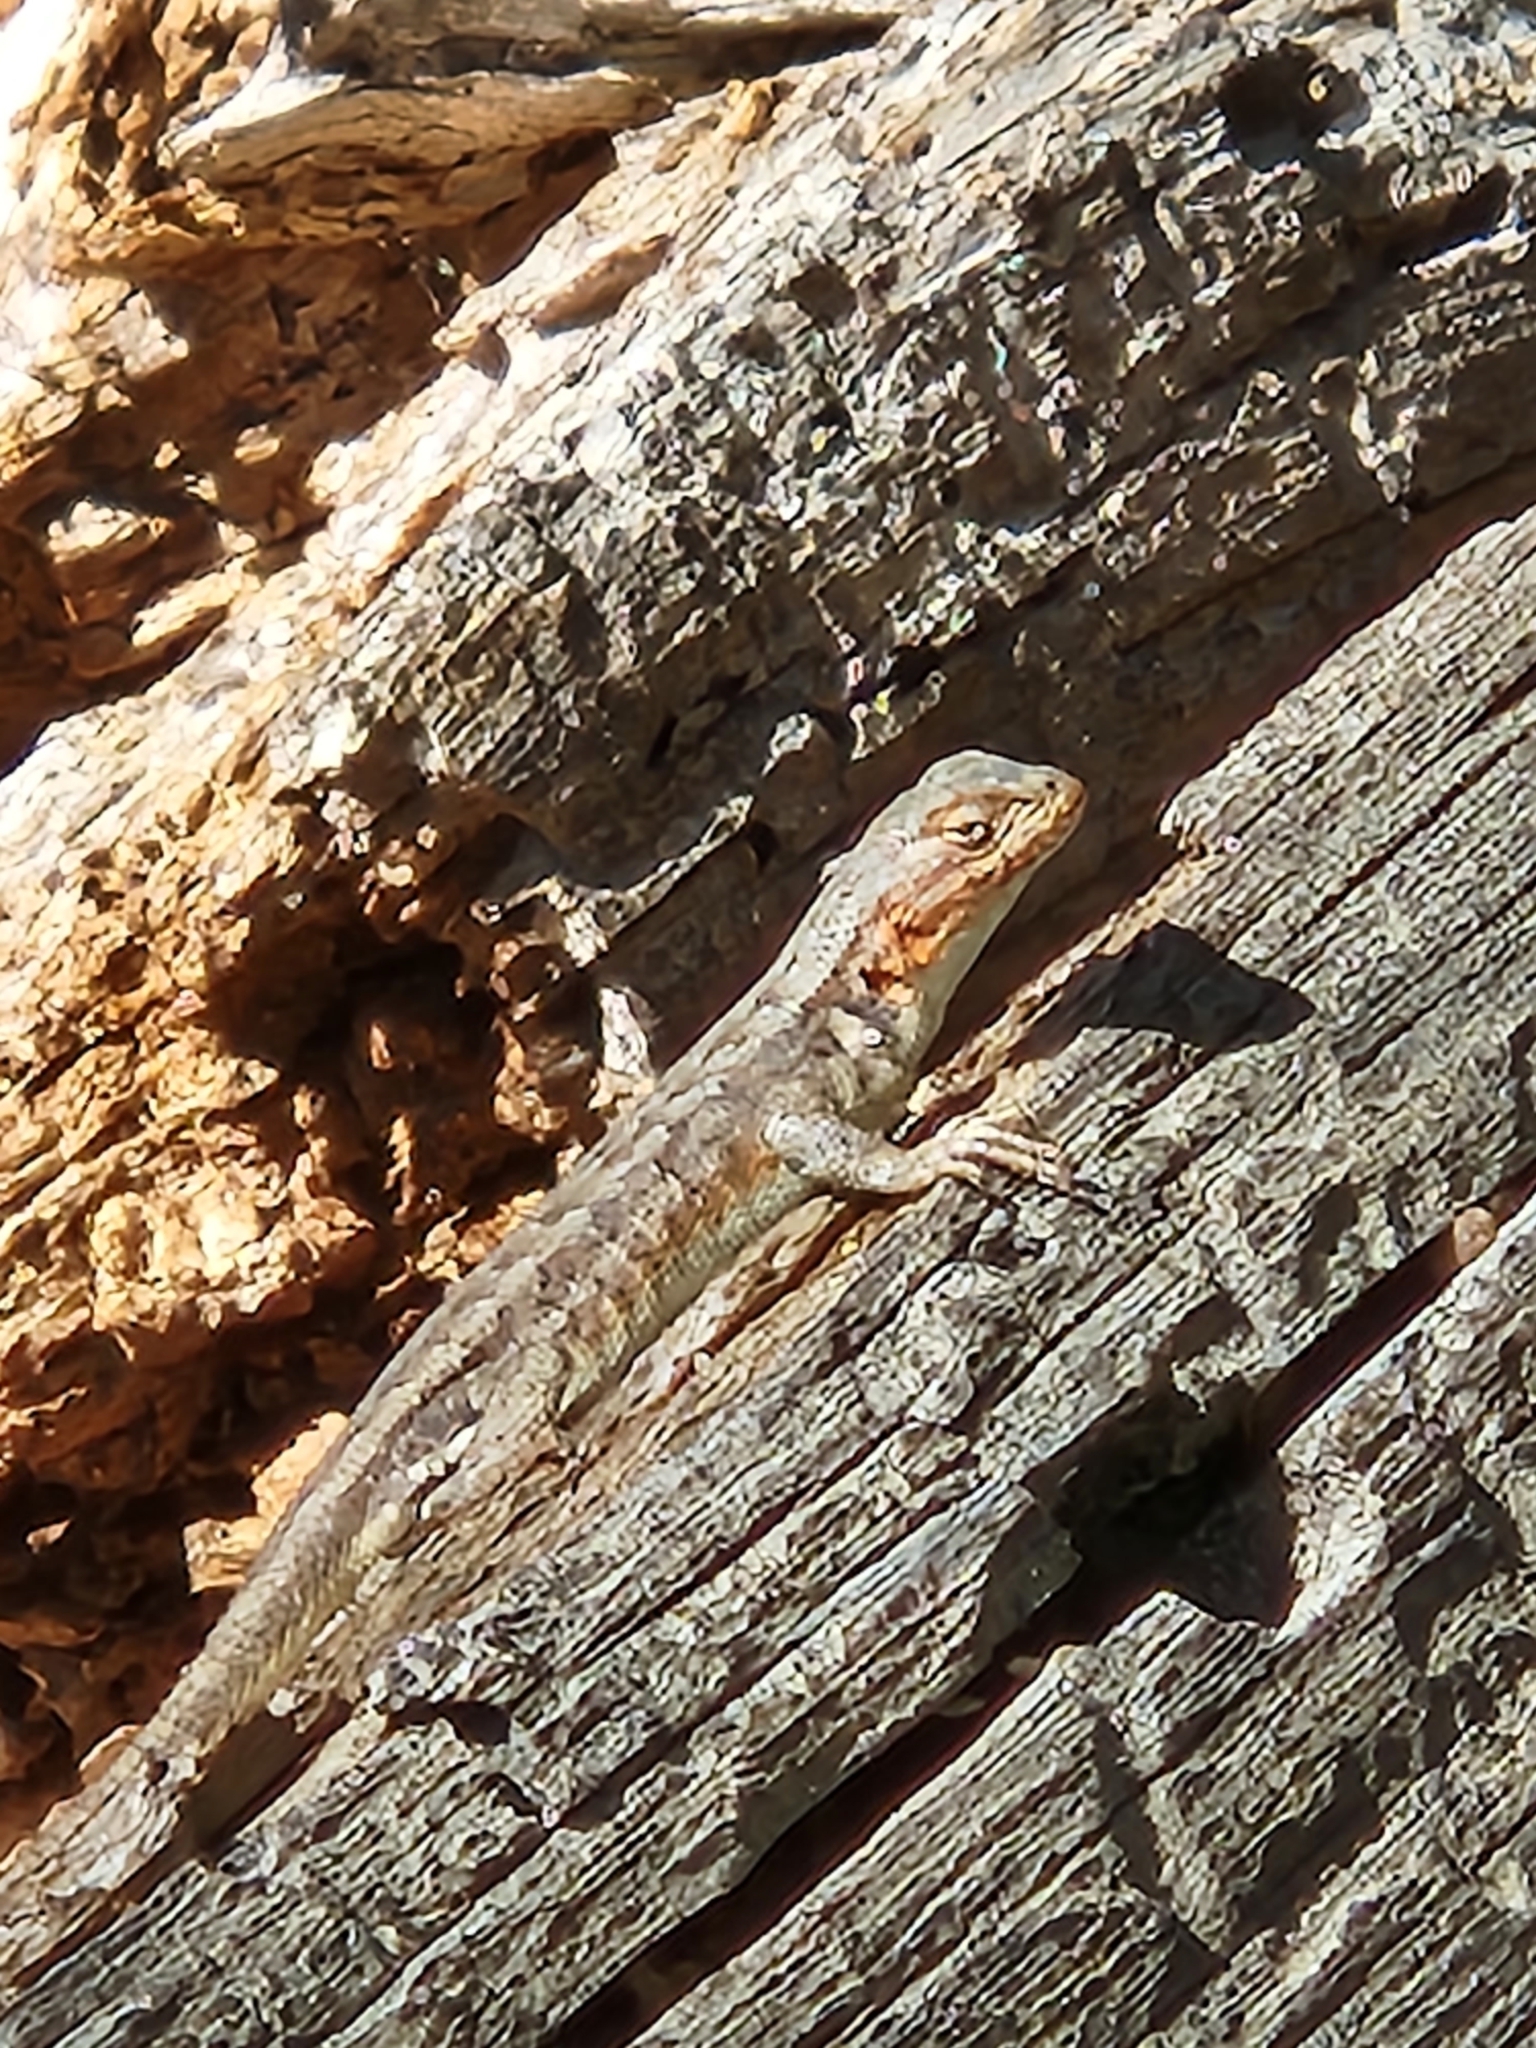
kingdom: Animalia
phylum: Chordata
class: Squamata
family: Phrynosomatidae
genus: Sceloporus
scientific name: Sceloporus occidentalis
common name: Western fence lizard
